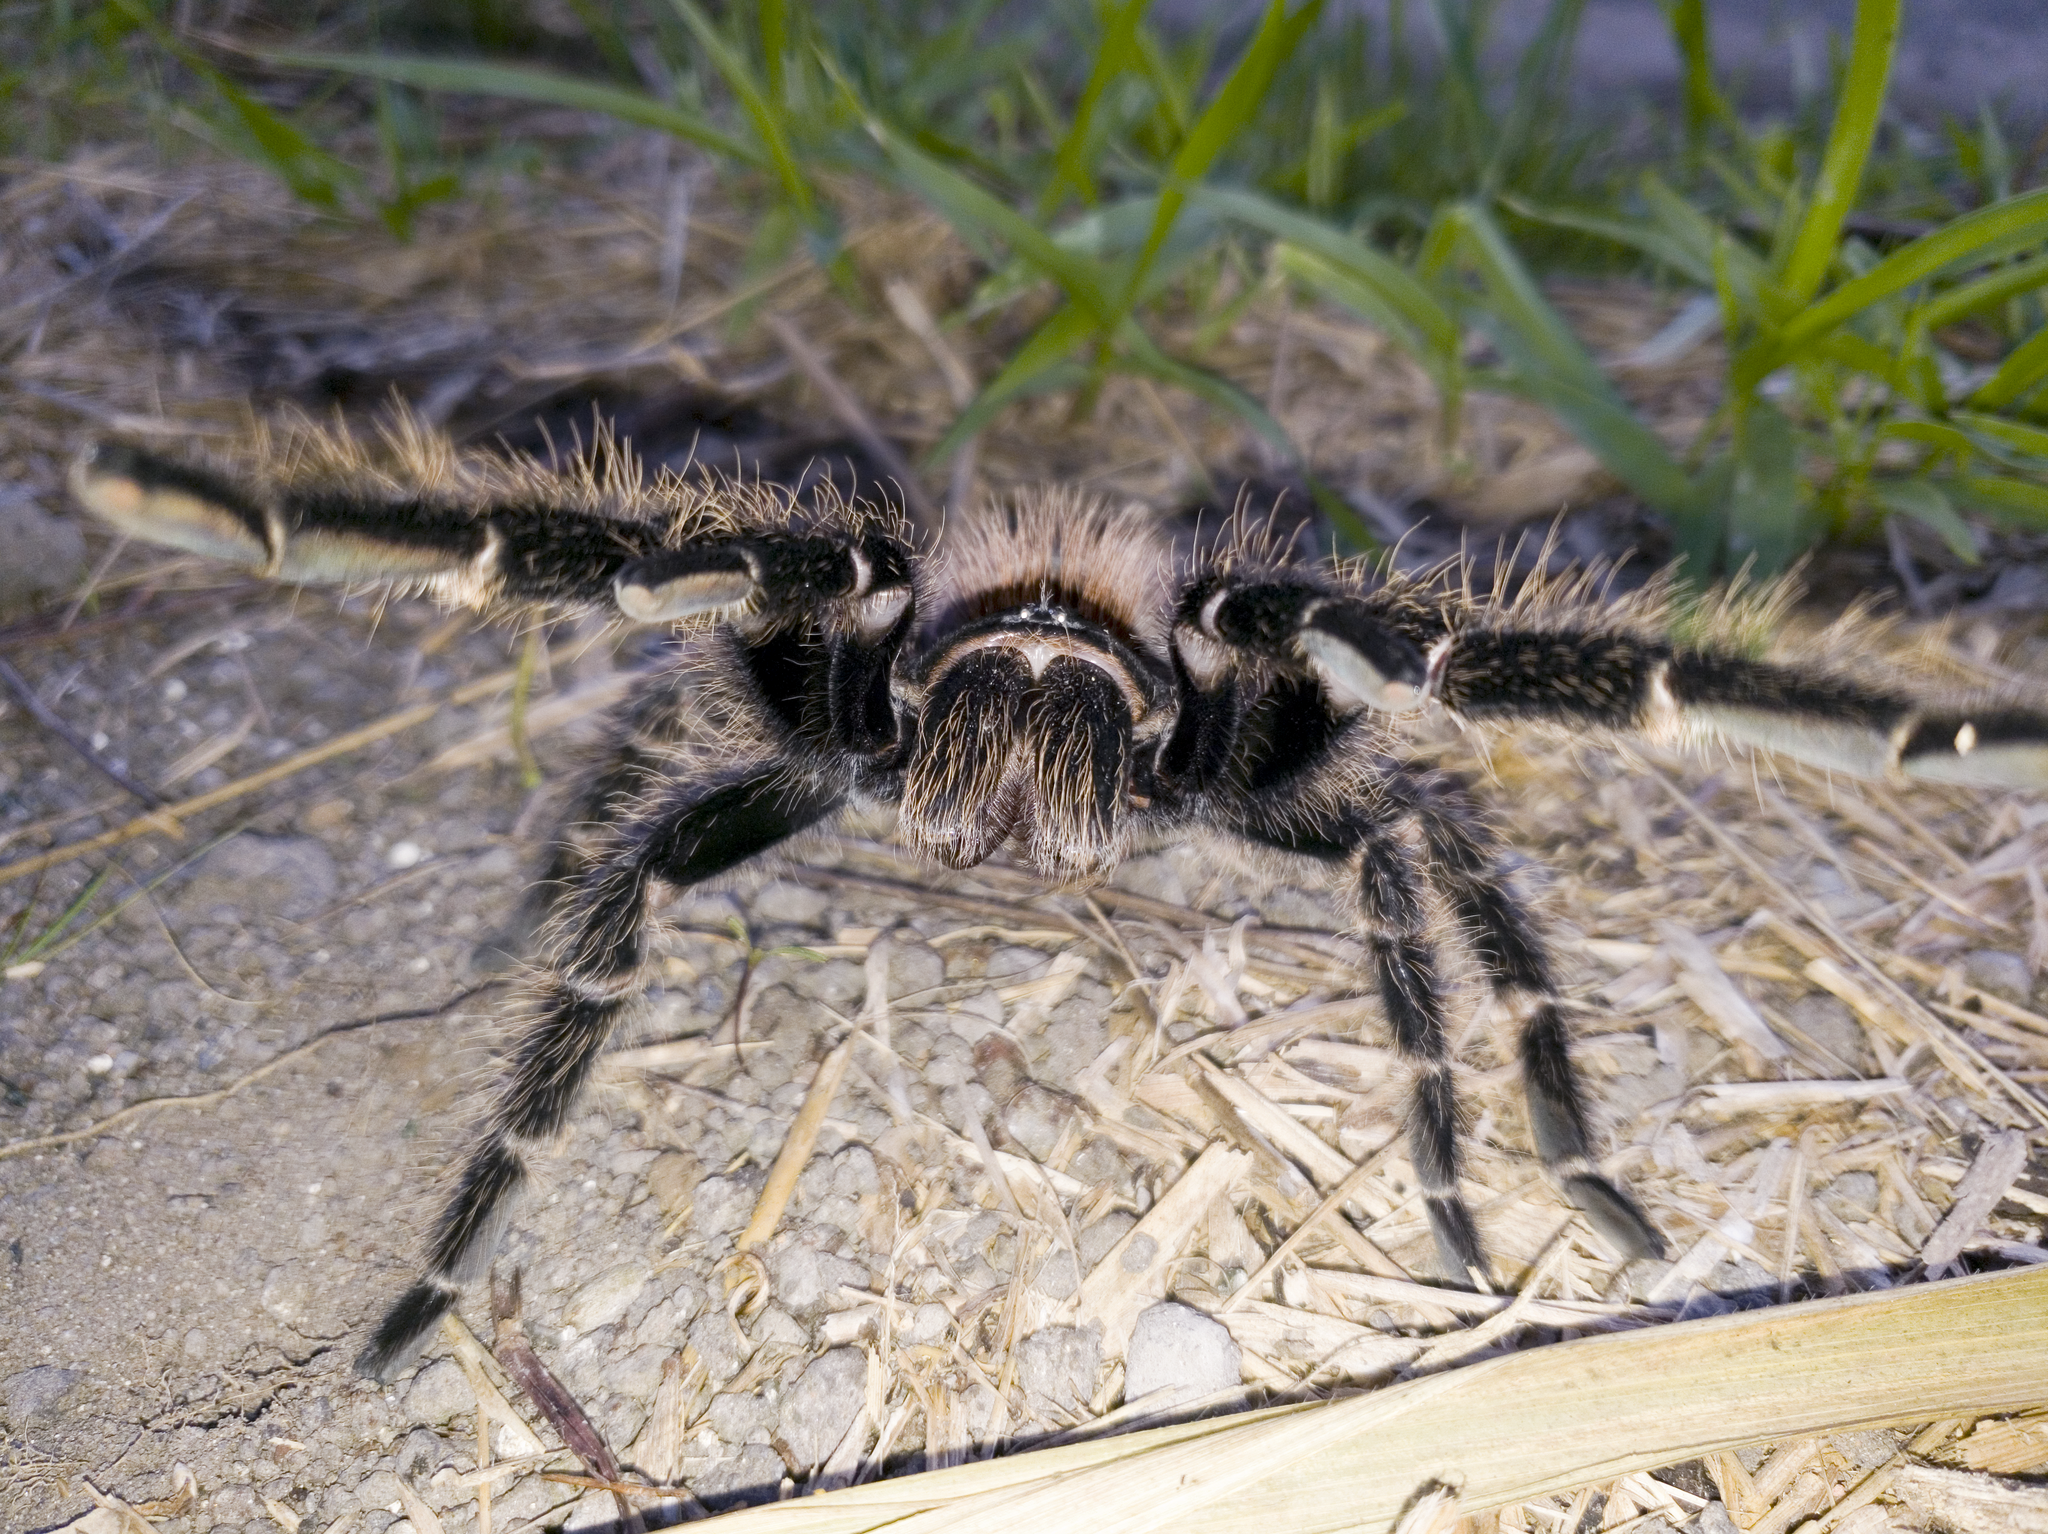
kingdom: Animalia
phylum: Arthropoda
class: Arachnida
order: Araneae
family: Theraphosidae
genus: Lasiodora
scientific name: Lasiodora benedeni
